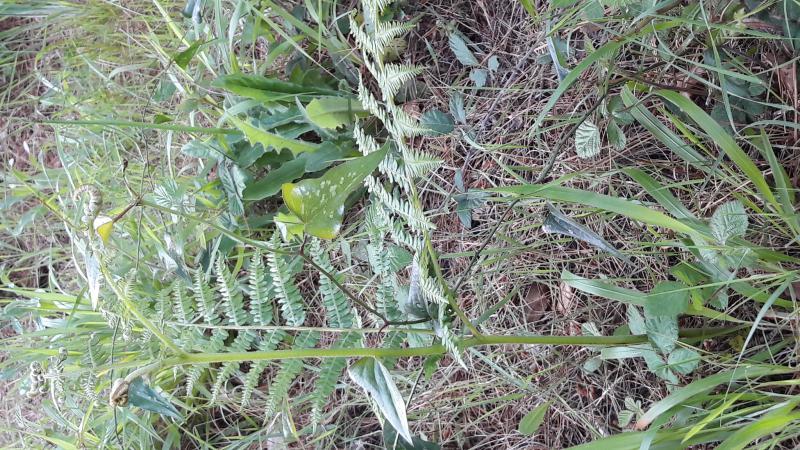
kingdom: Plantae
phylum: Tracheophyta
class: Polypodiopsida
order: Polypodiales
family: Dennstaedtiaceae
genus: Pteridium
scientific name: Pteridium aquilinum
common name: Bracken
